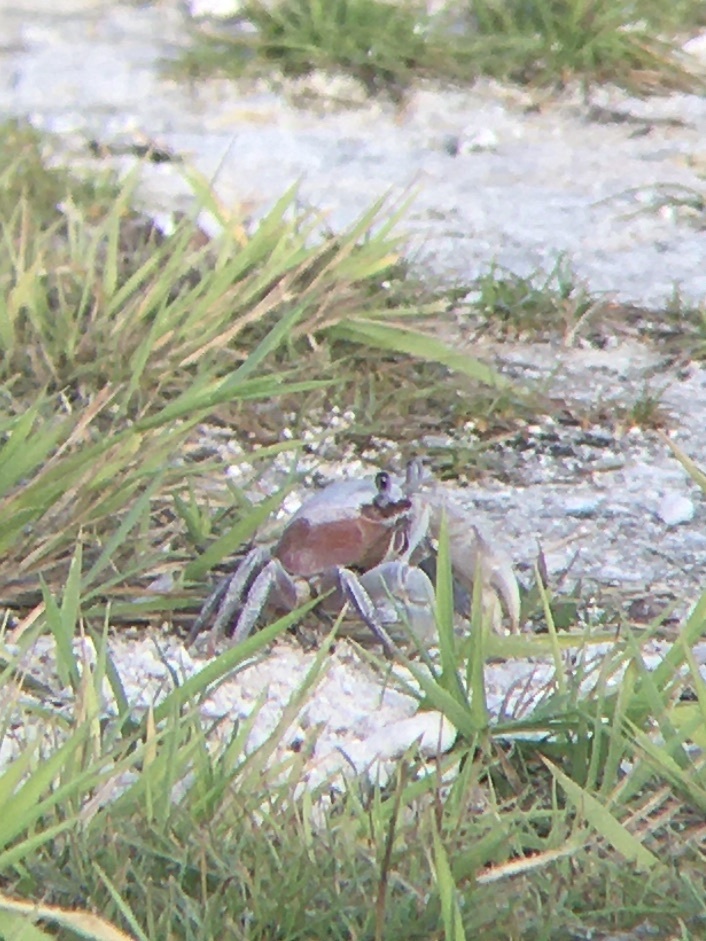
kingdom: Animalia
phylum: Arthropoda
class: Malacostraca
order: Decapoda
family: Gecarcinidae
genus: Cardisoma
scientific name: Cardisoma carnifex
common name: Brown land crab
